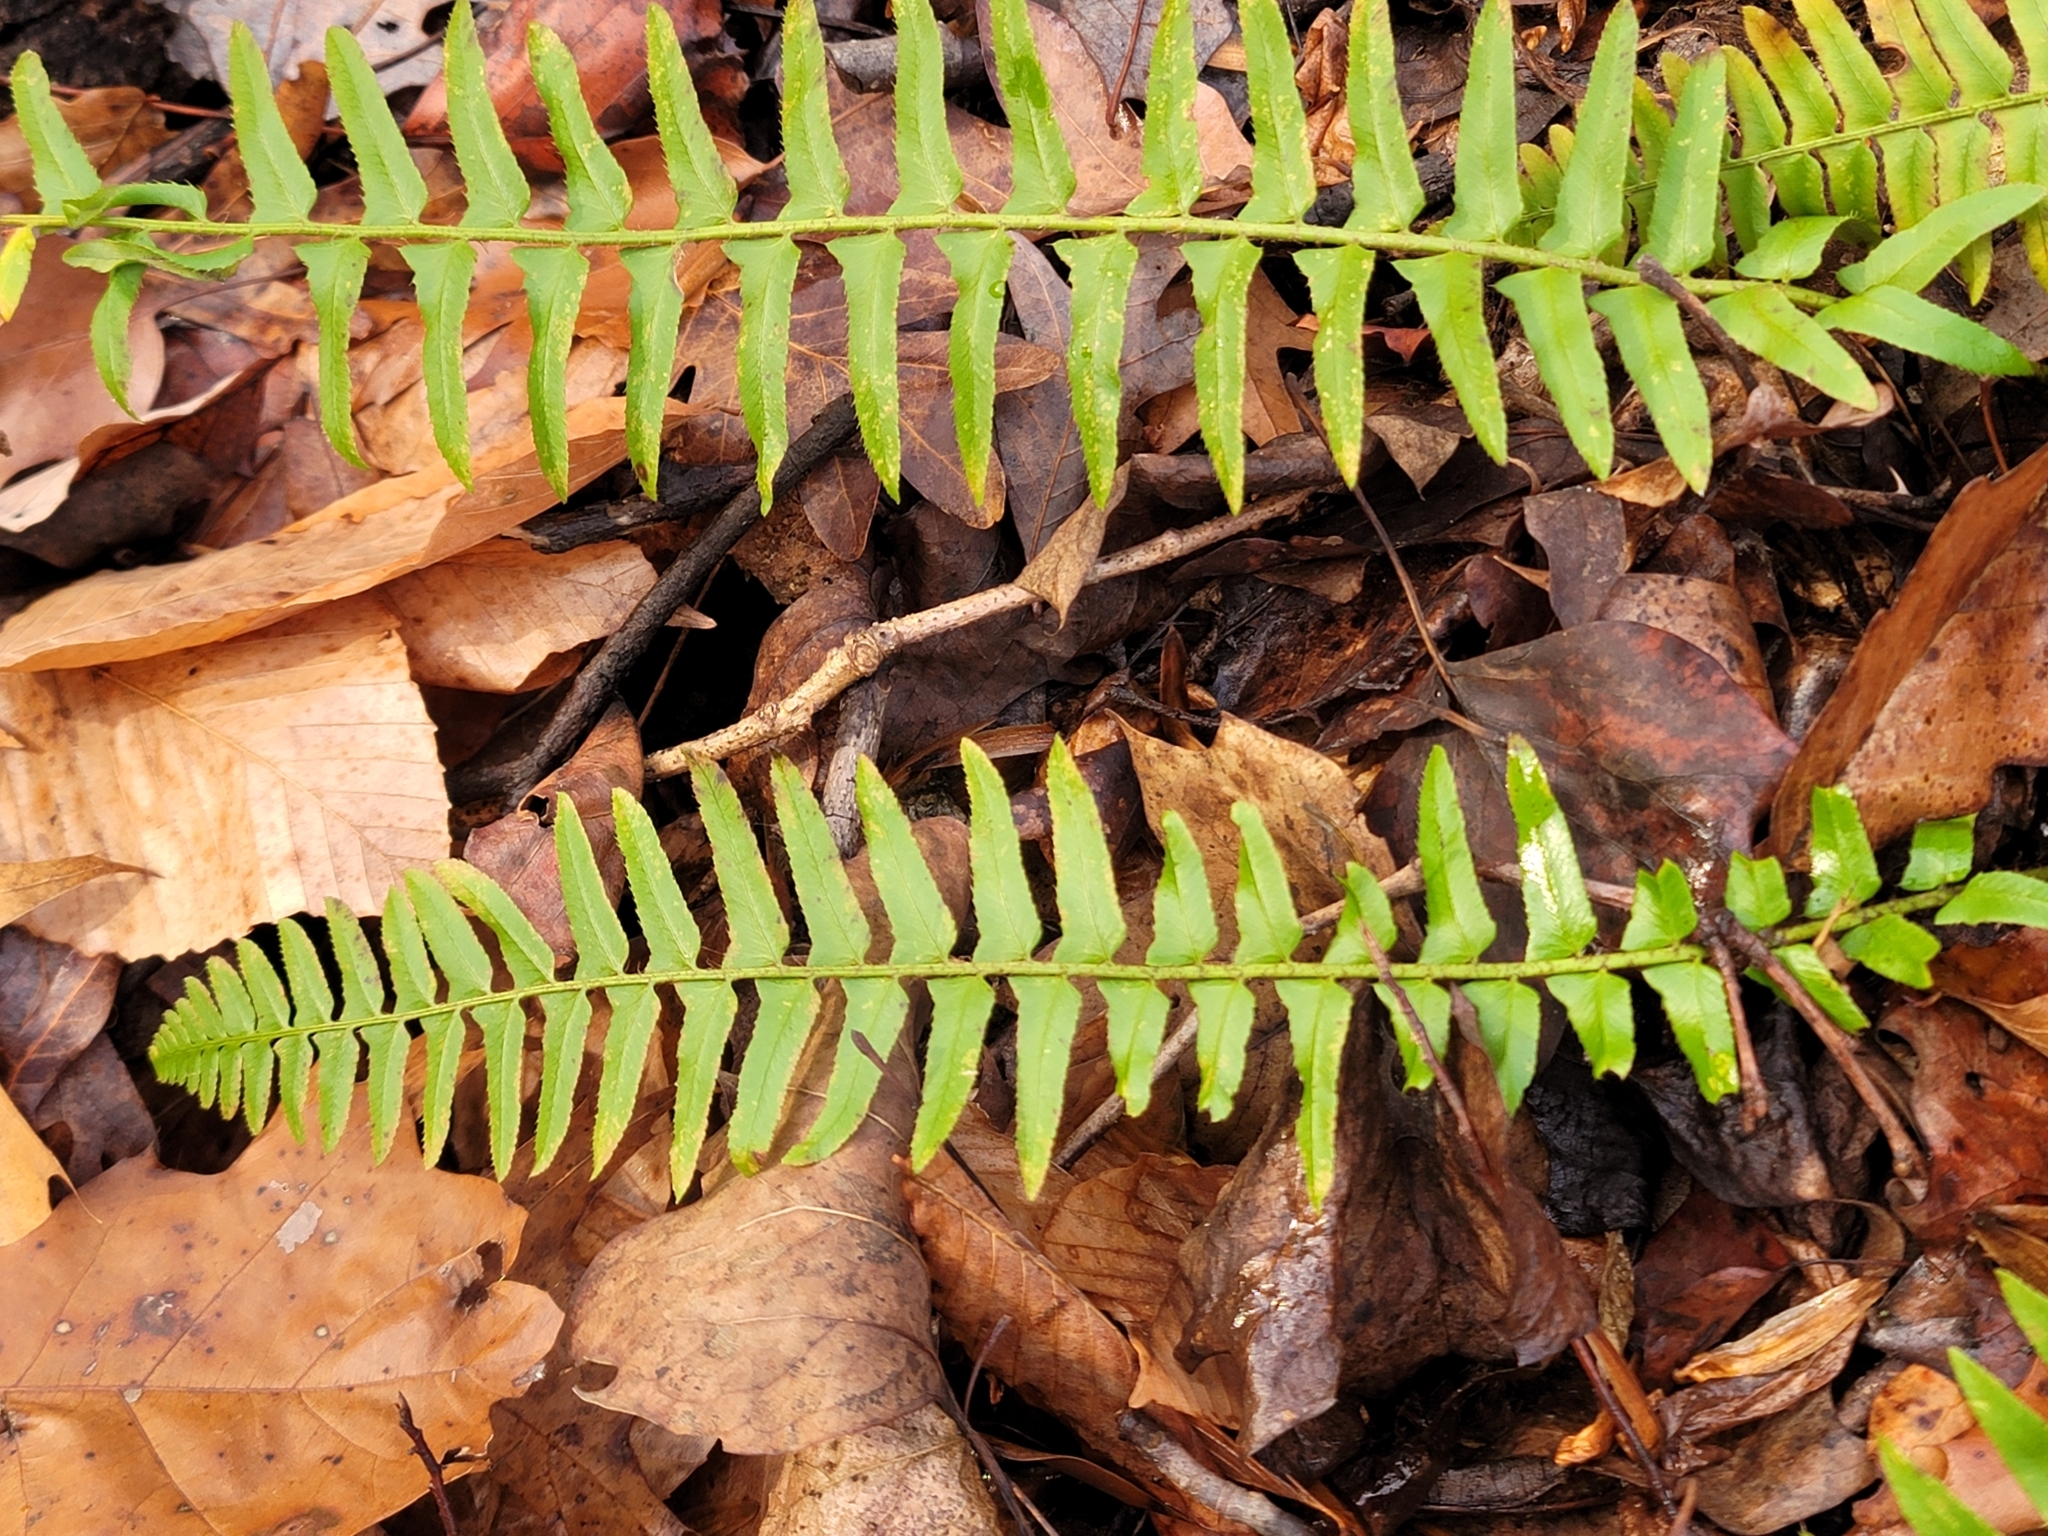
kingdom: Plantae
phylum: Tracheophyta
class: Polypodiopsida
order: Polypodiales
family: Dryopteridaceae
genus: Polystichum
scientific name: Polystichum acrostichoides
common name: Christmas fern
